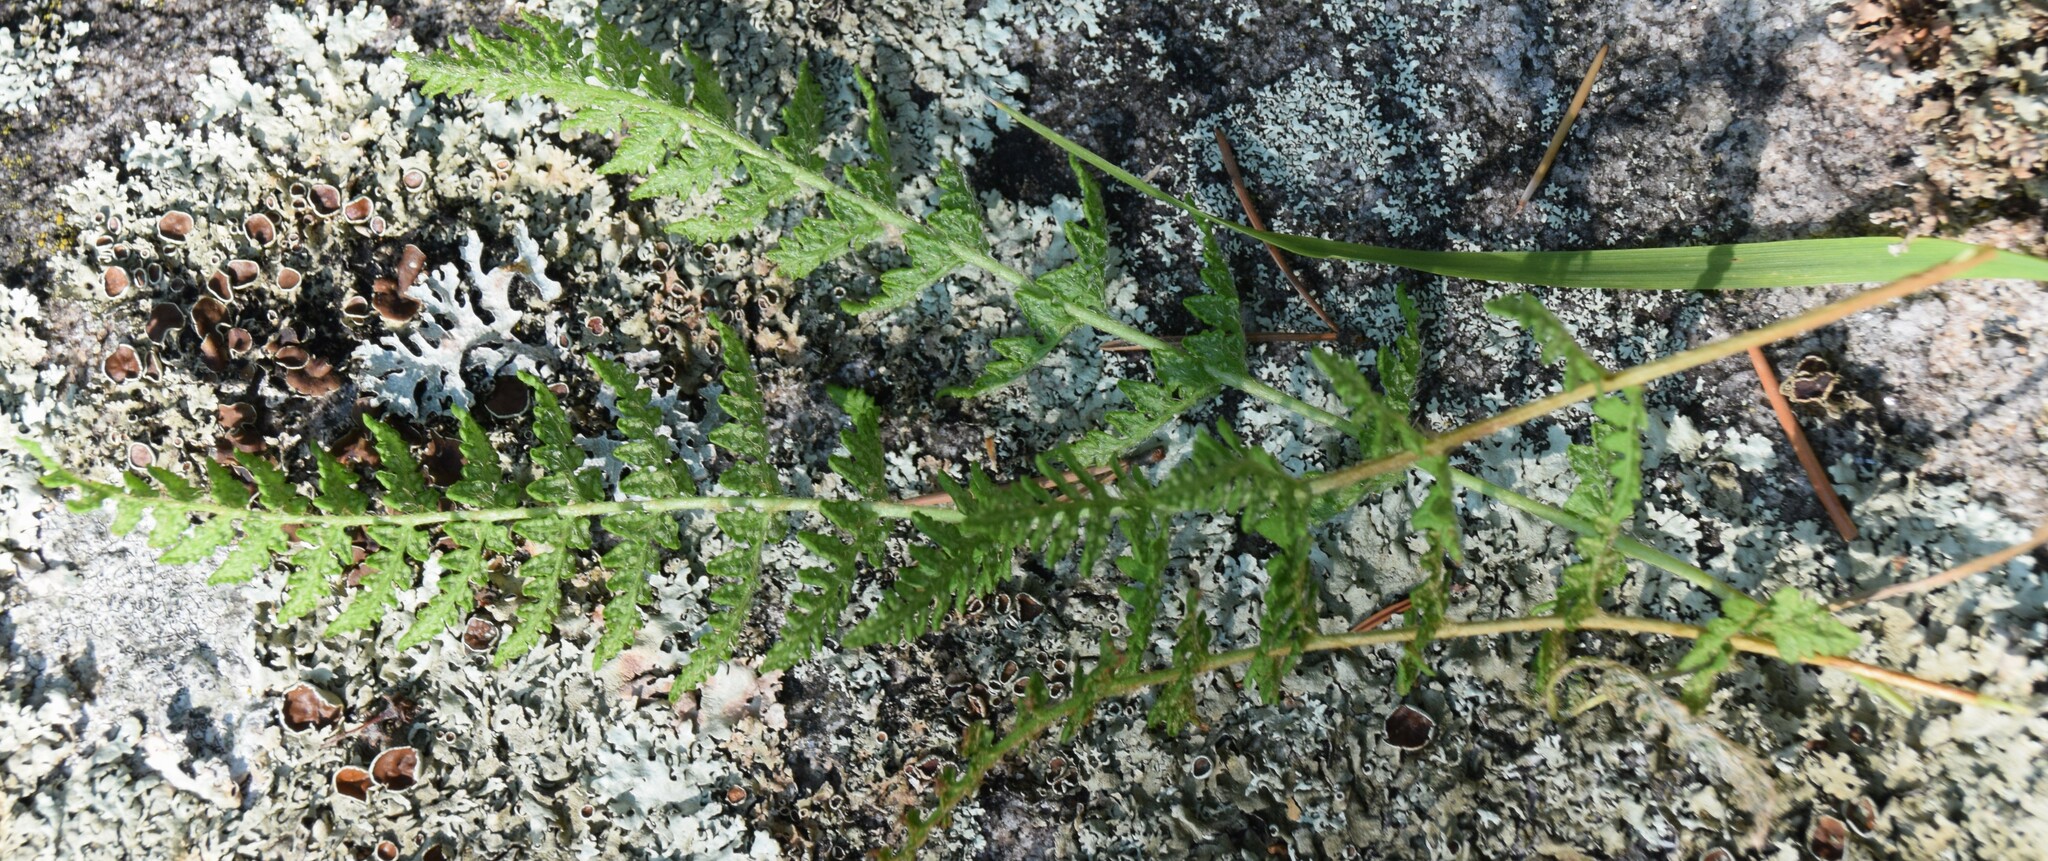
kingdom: Plantae
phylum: Tracheophyta
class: Polypodiopsida
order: Polypodiales
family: Woodsiaceae
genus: Woodsia
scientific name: Woodsia ilvensis
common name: Fragrant woodsia
